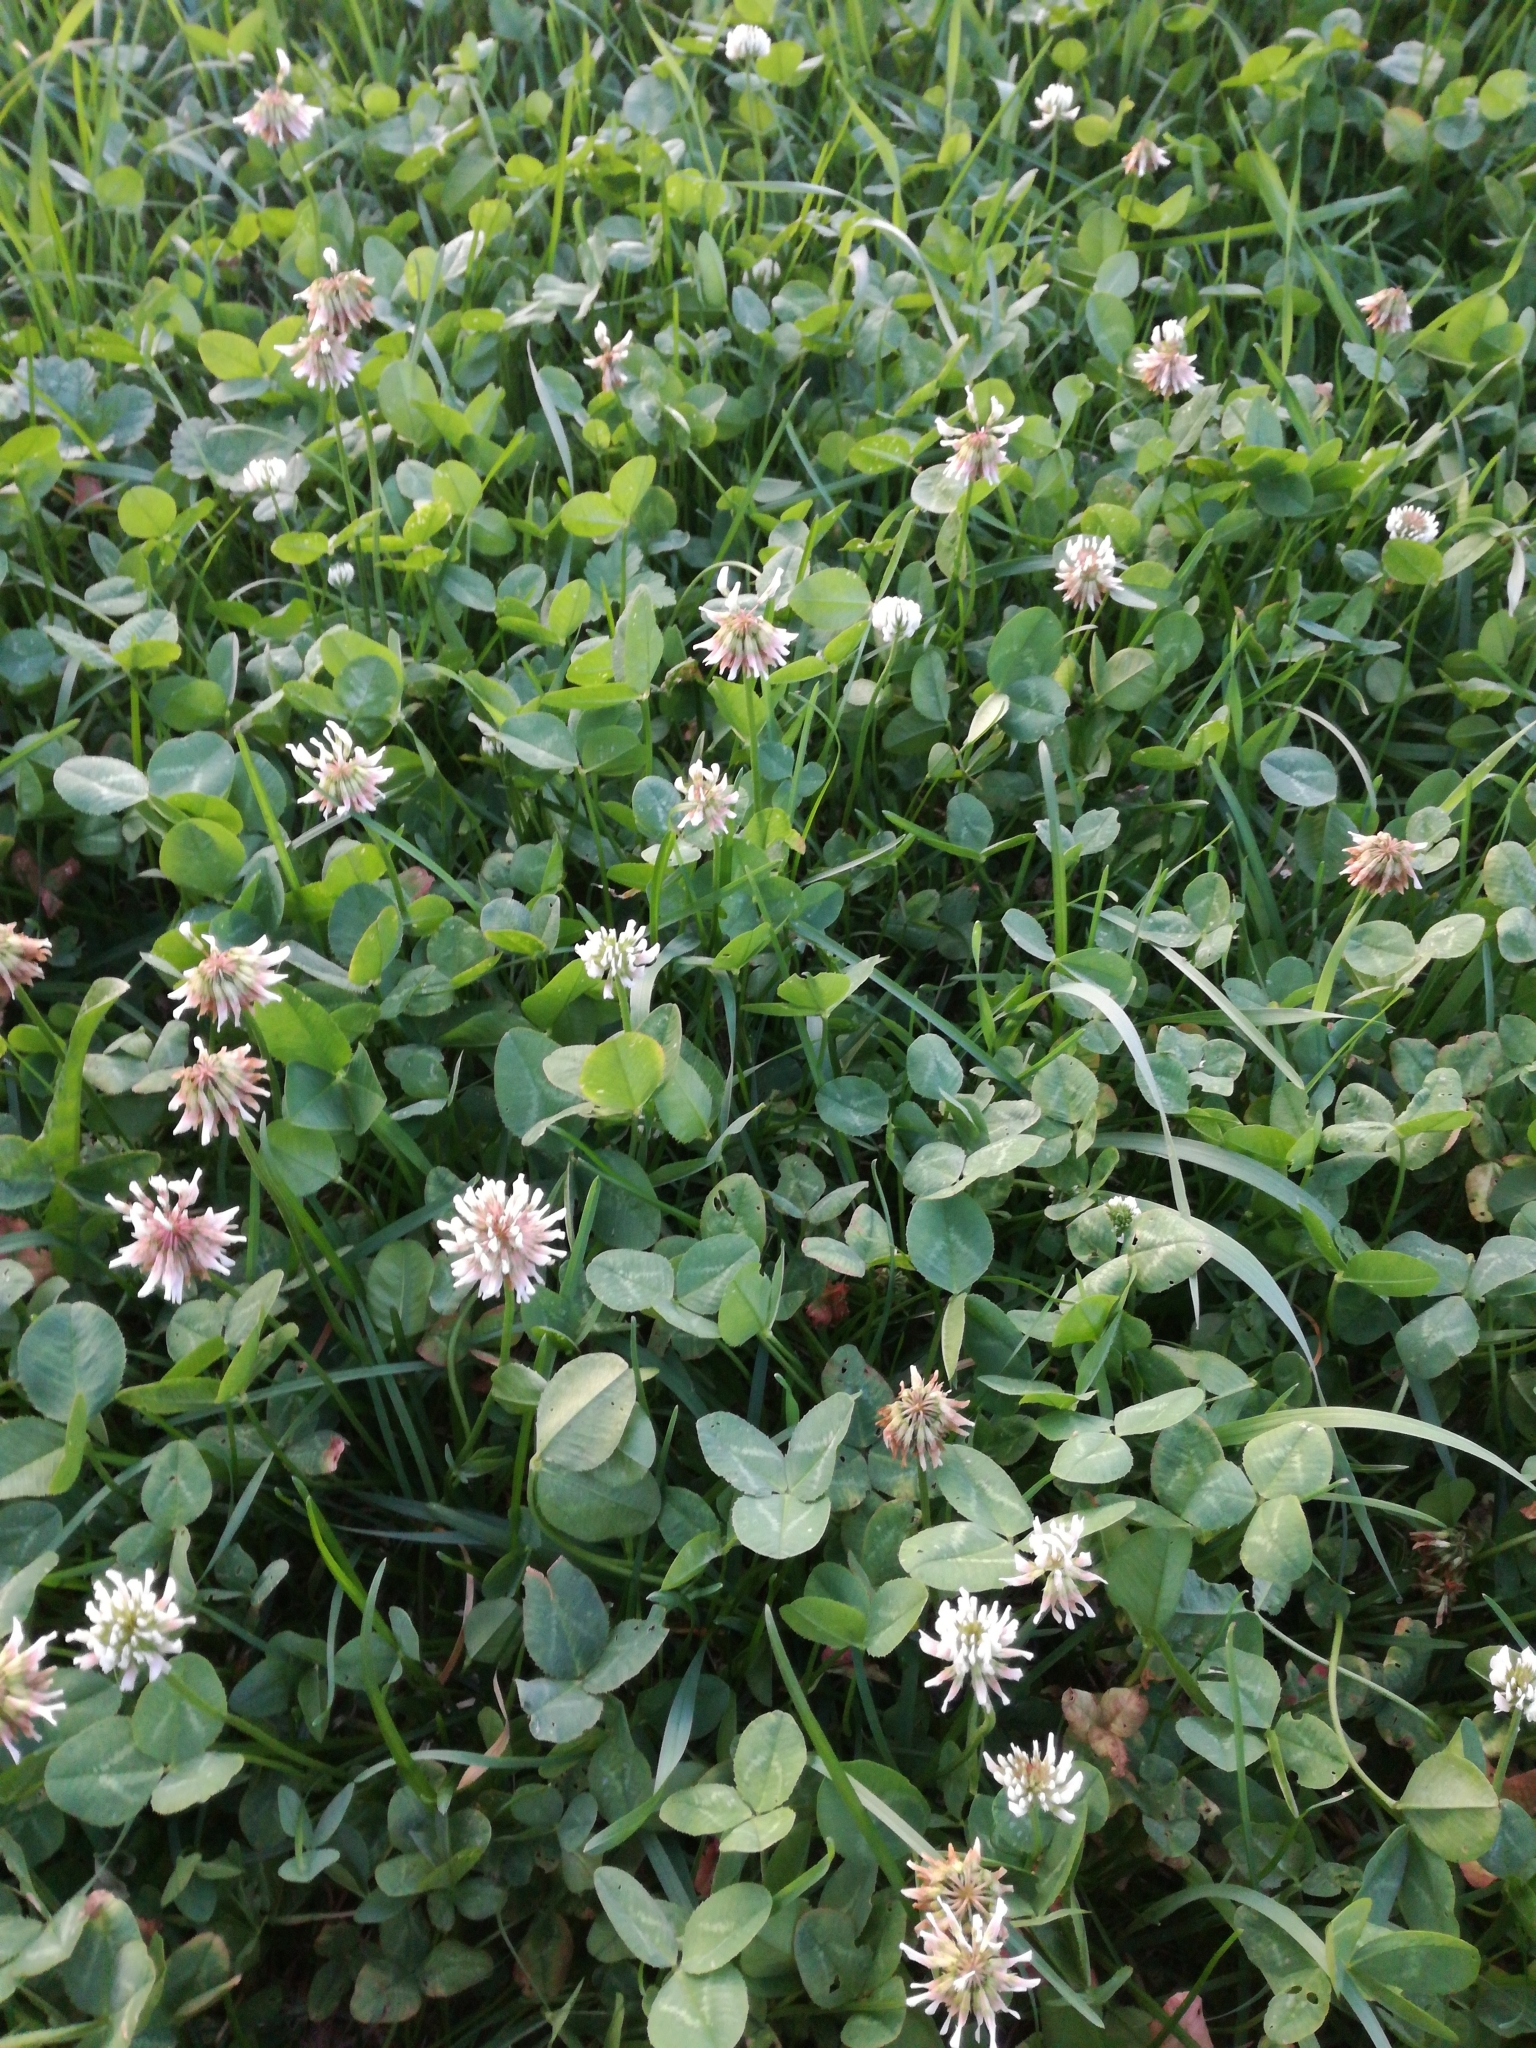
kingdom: Plantae
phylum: Tracheophyta
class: Magnoliopsida
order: Fabales
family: Fabaceae
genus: Trifolium
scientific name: Trifolium repens
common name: White clover
